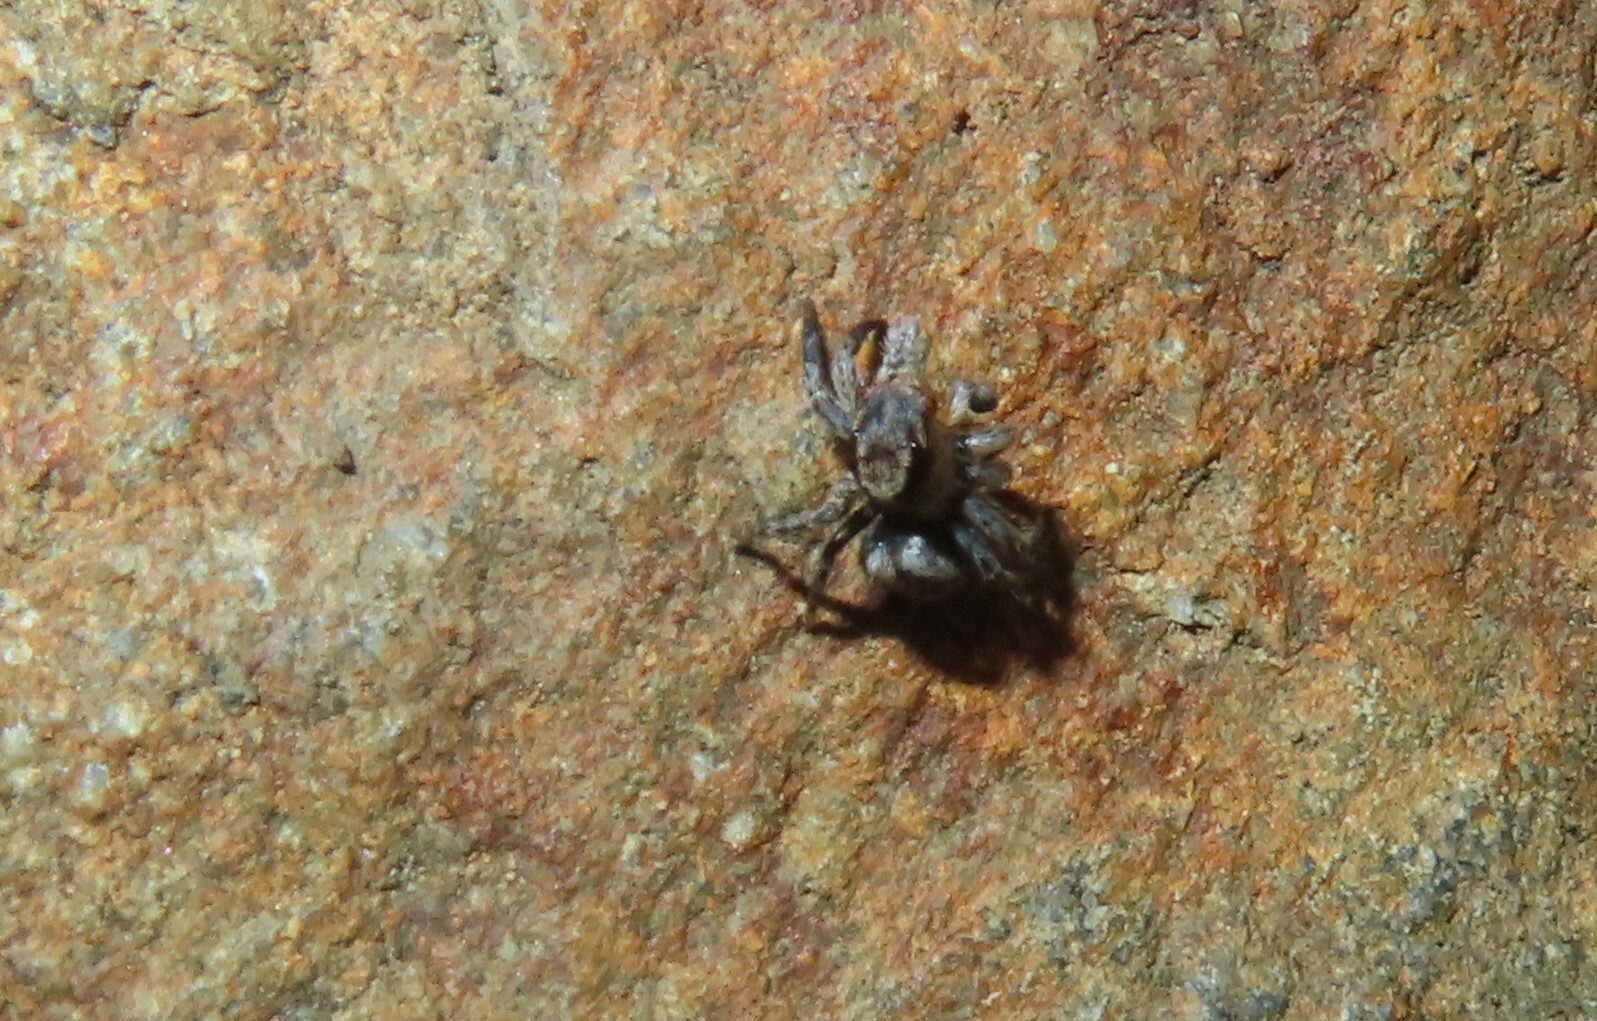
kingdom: Animalia
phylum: Arthropoda
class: Arachnida
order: Araneae
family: Salticidae
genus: Naphrys
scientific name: Naphrys pulex
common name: Flea jumping spider
